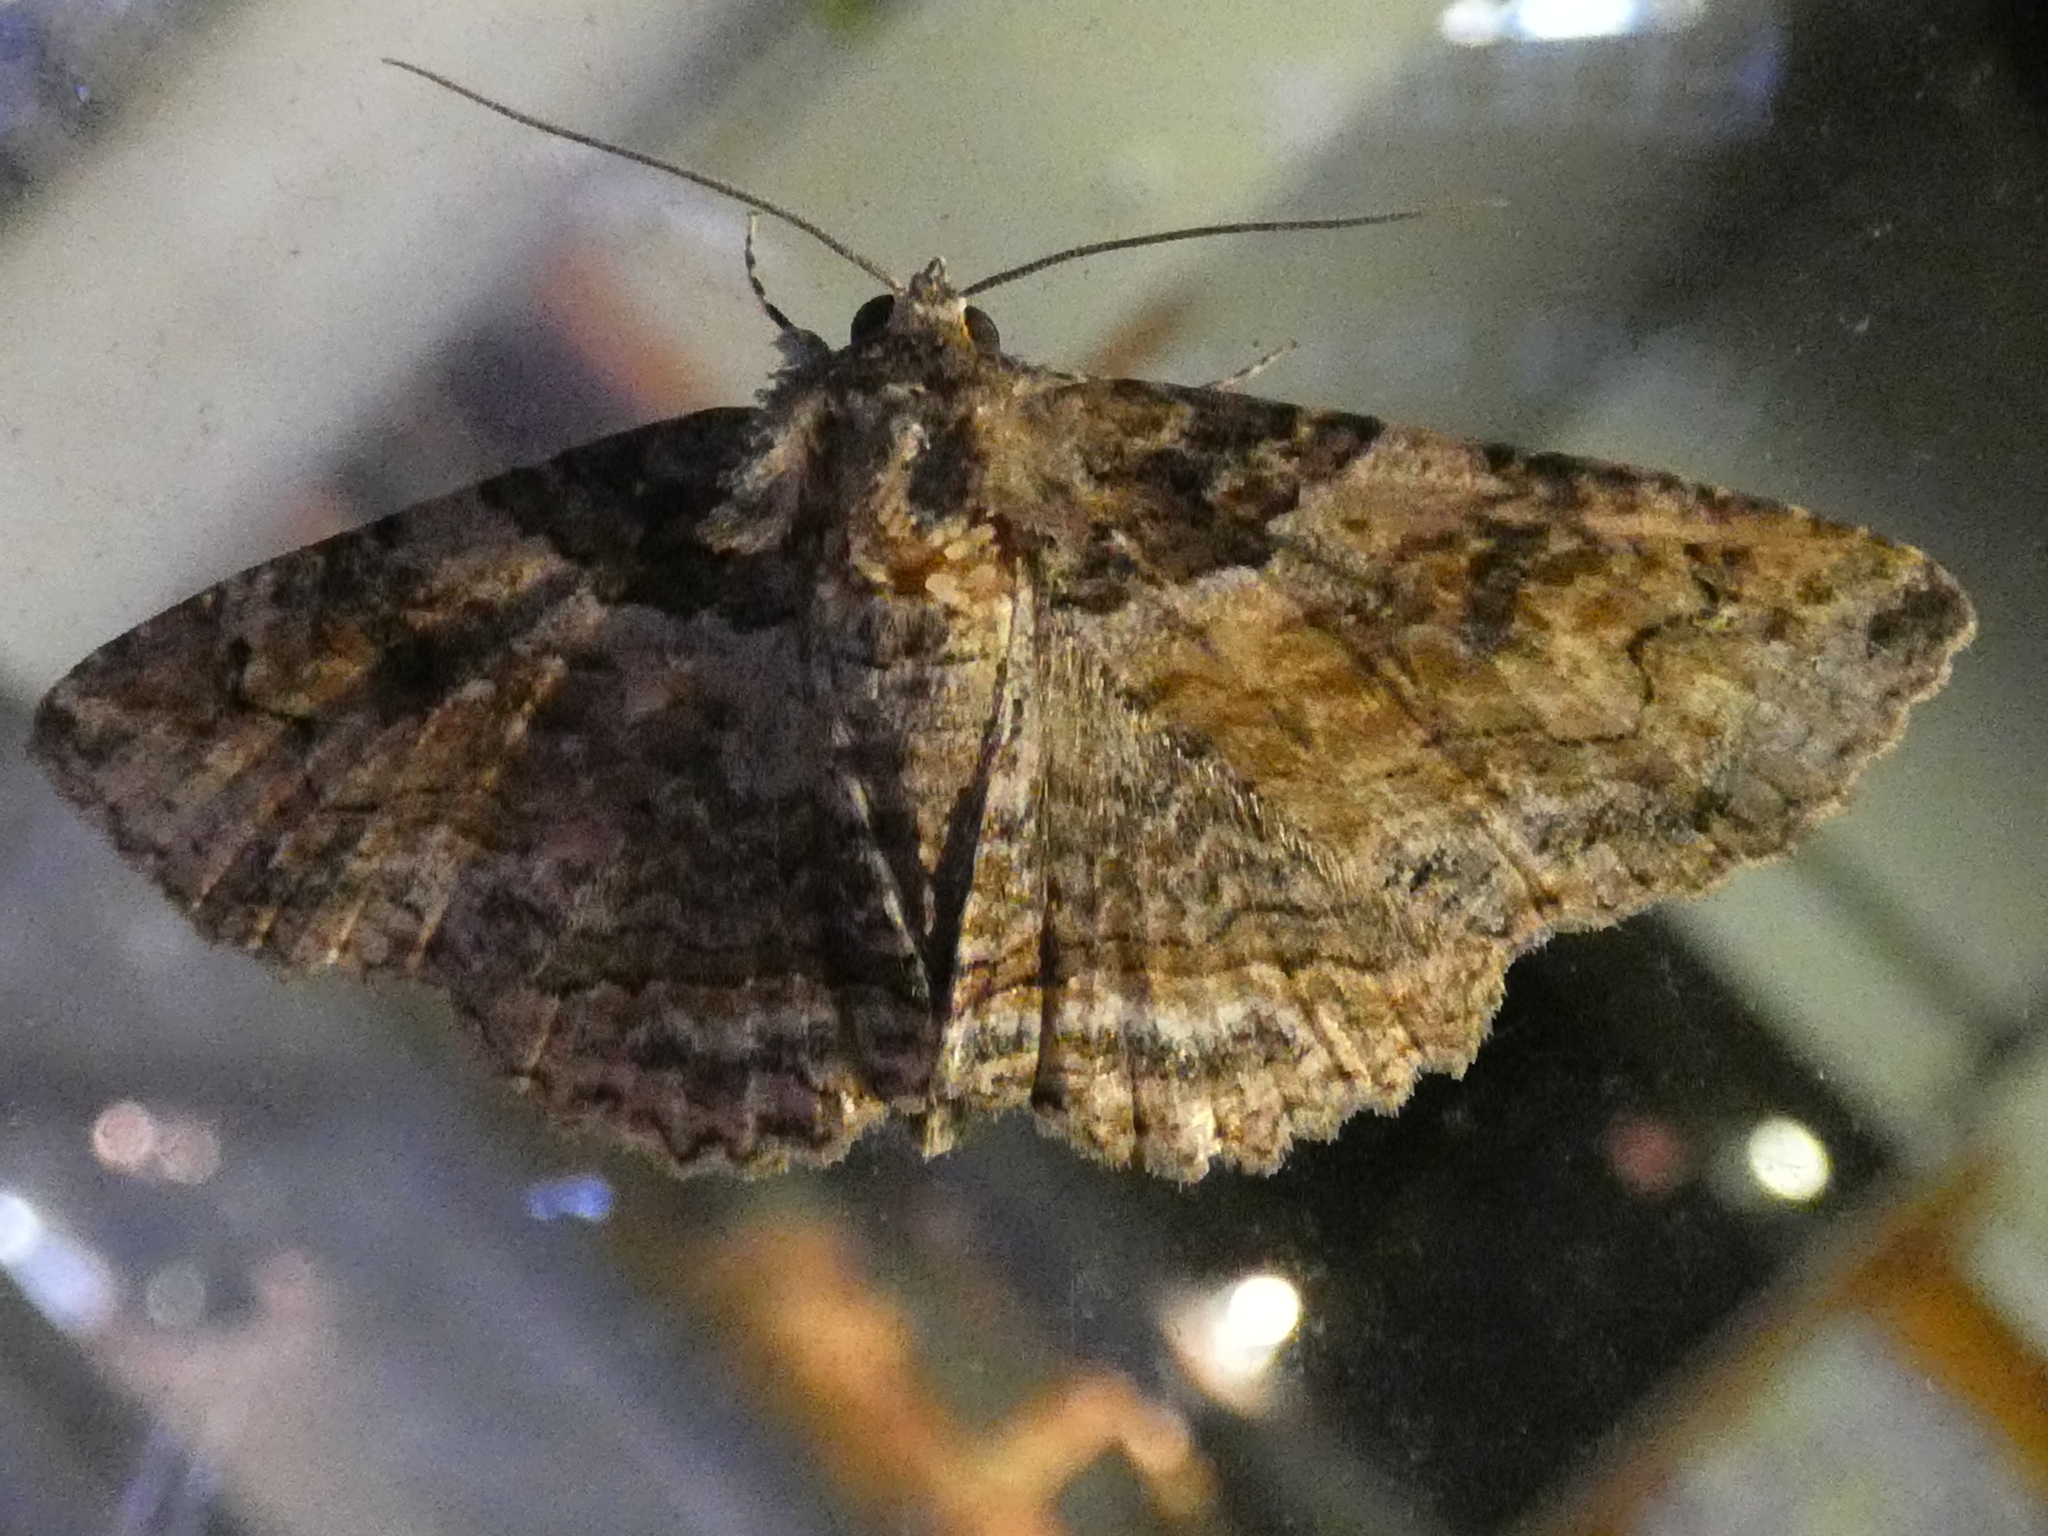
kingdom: Animalia
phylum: Arthropoda
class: Insecta
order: Lepidoptera
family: Erebidae
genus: Zale
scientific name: Zale galbanata
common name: Maple zale
